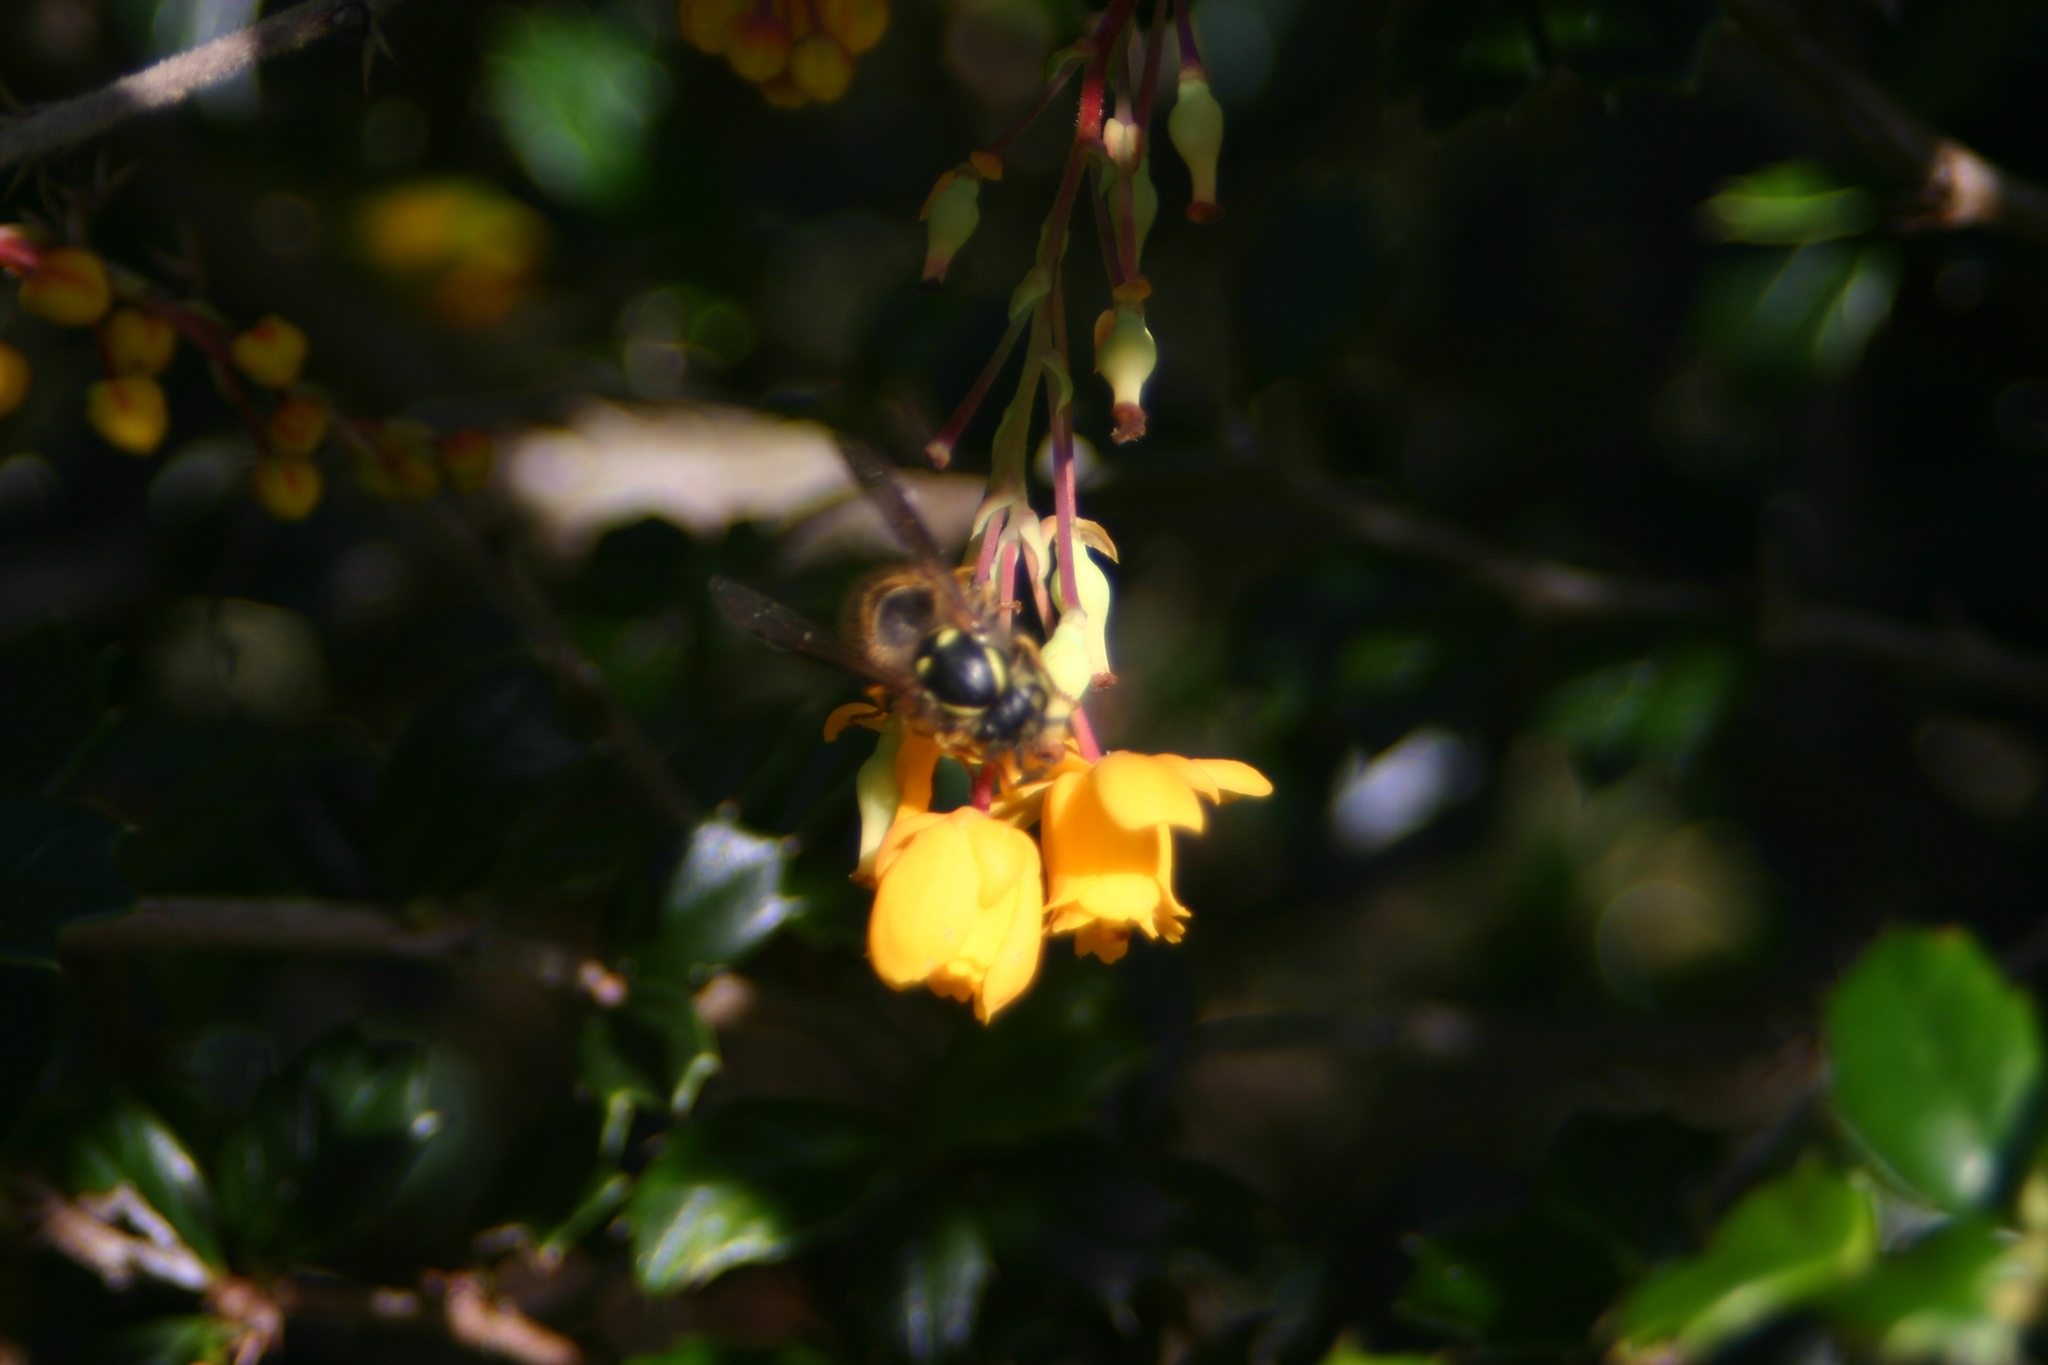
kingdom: Animalia
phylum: Arthropoda
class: Insecta
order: Hymenoptera
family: Vespidae
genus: Vespula
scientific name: Vespula vulgaris
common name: Common wasp
